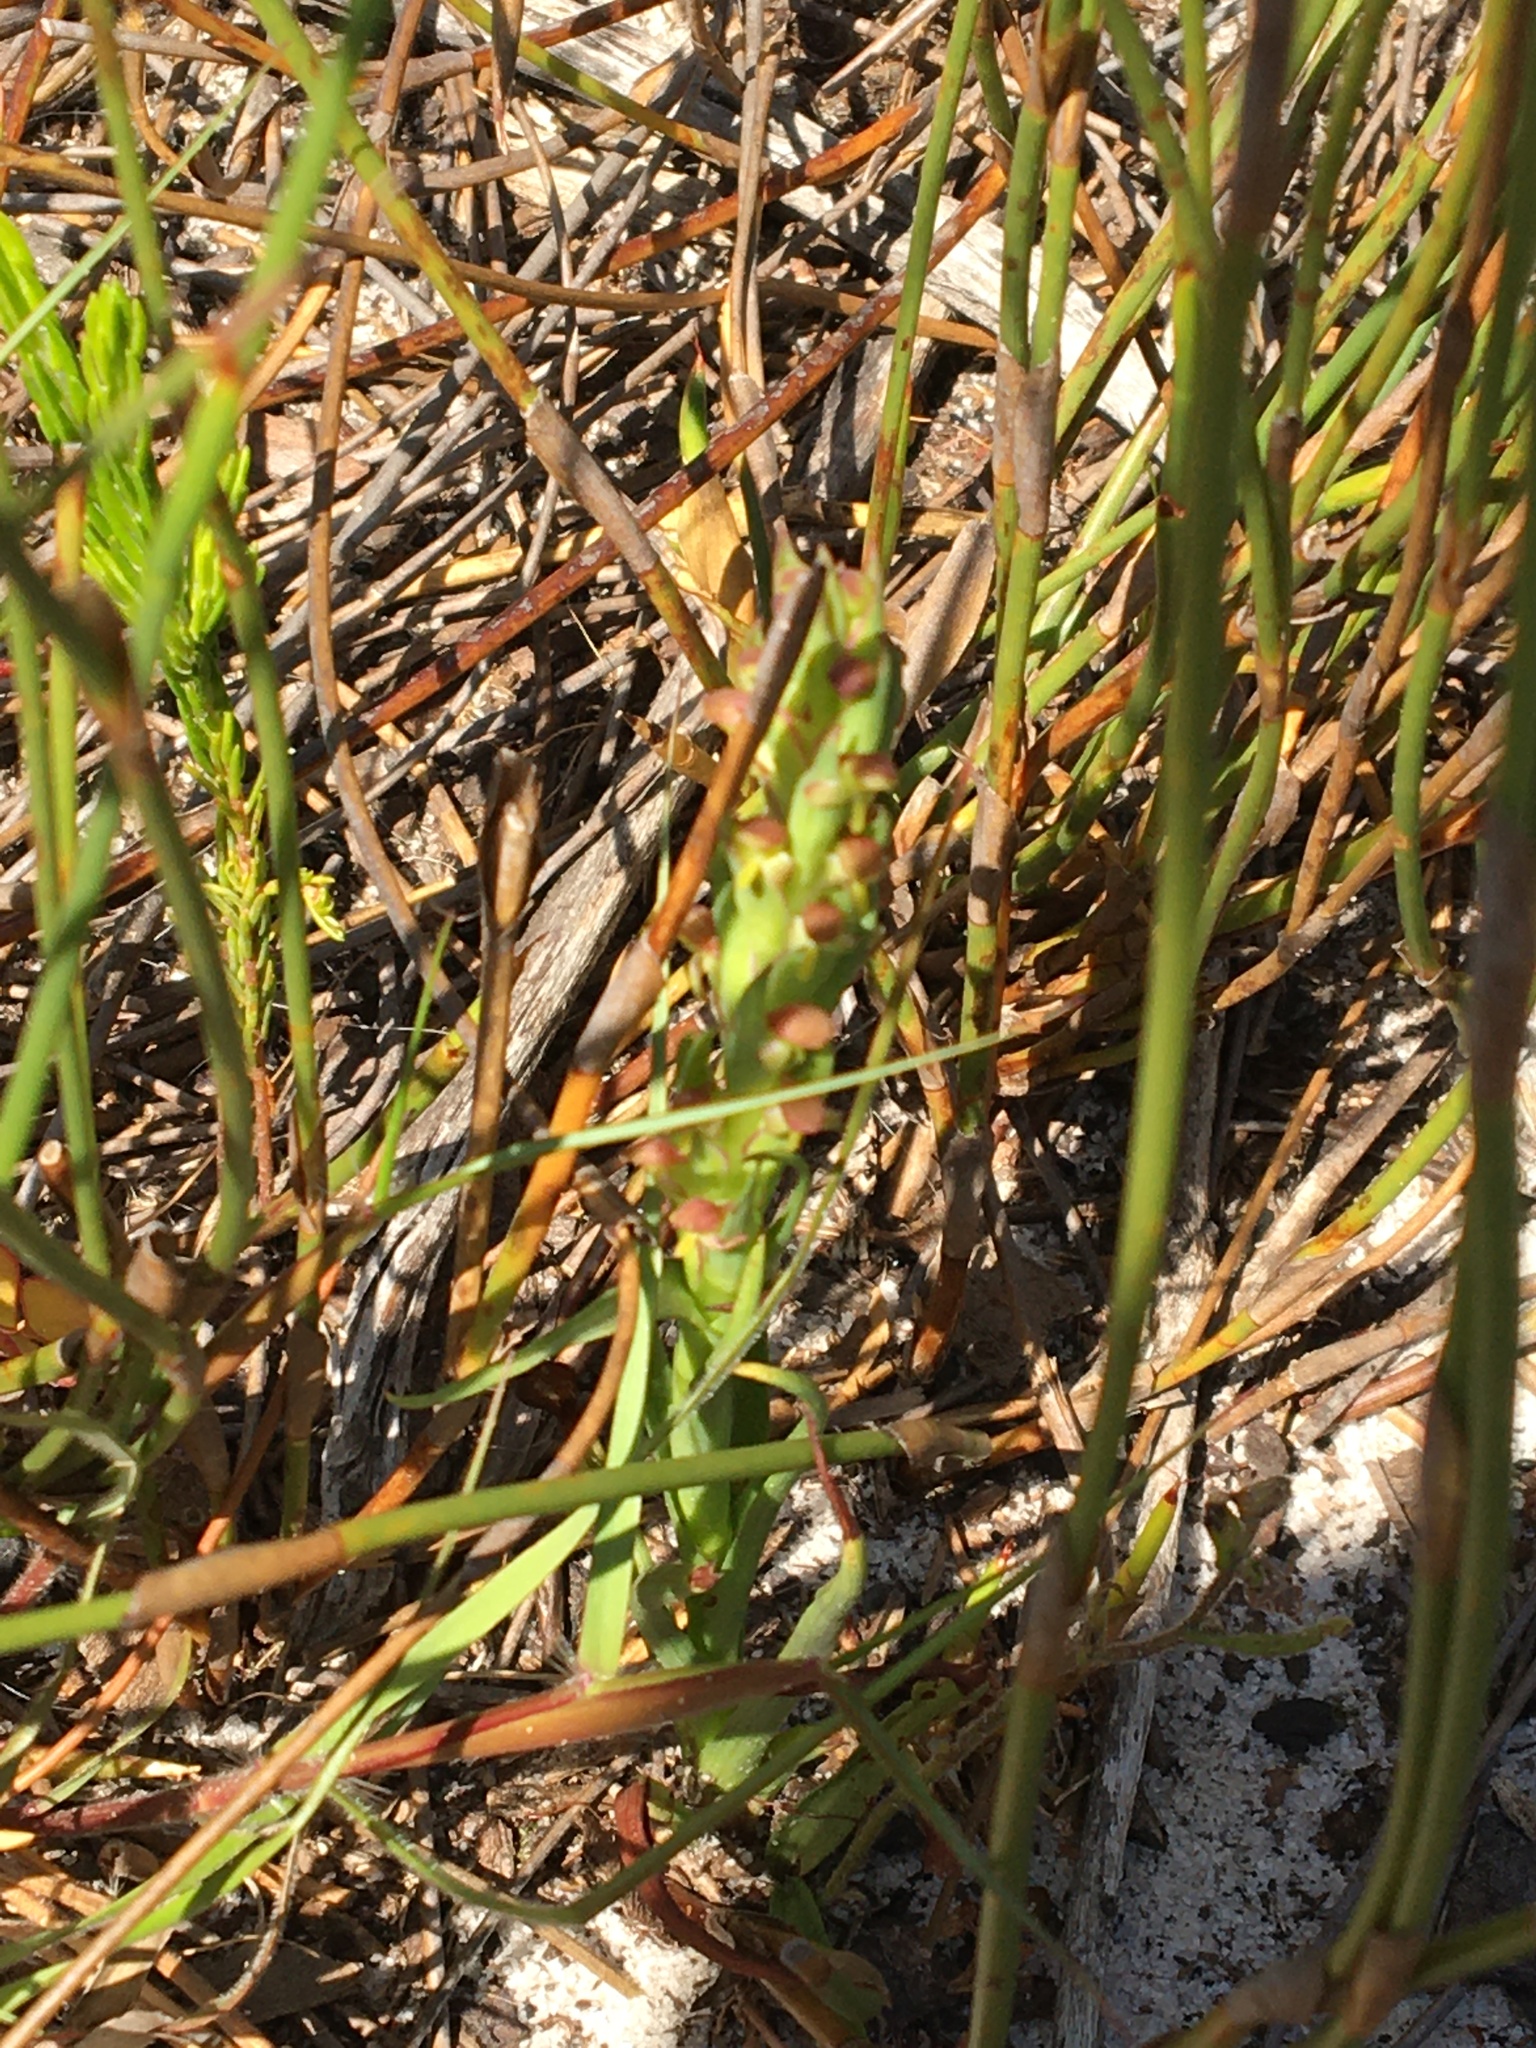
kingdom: Plantae
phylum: Tracheophyta
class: Liliopsida
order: Asparagales
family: Orchidaceae
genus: Disa
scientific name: Disa bracteata
